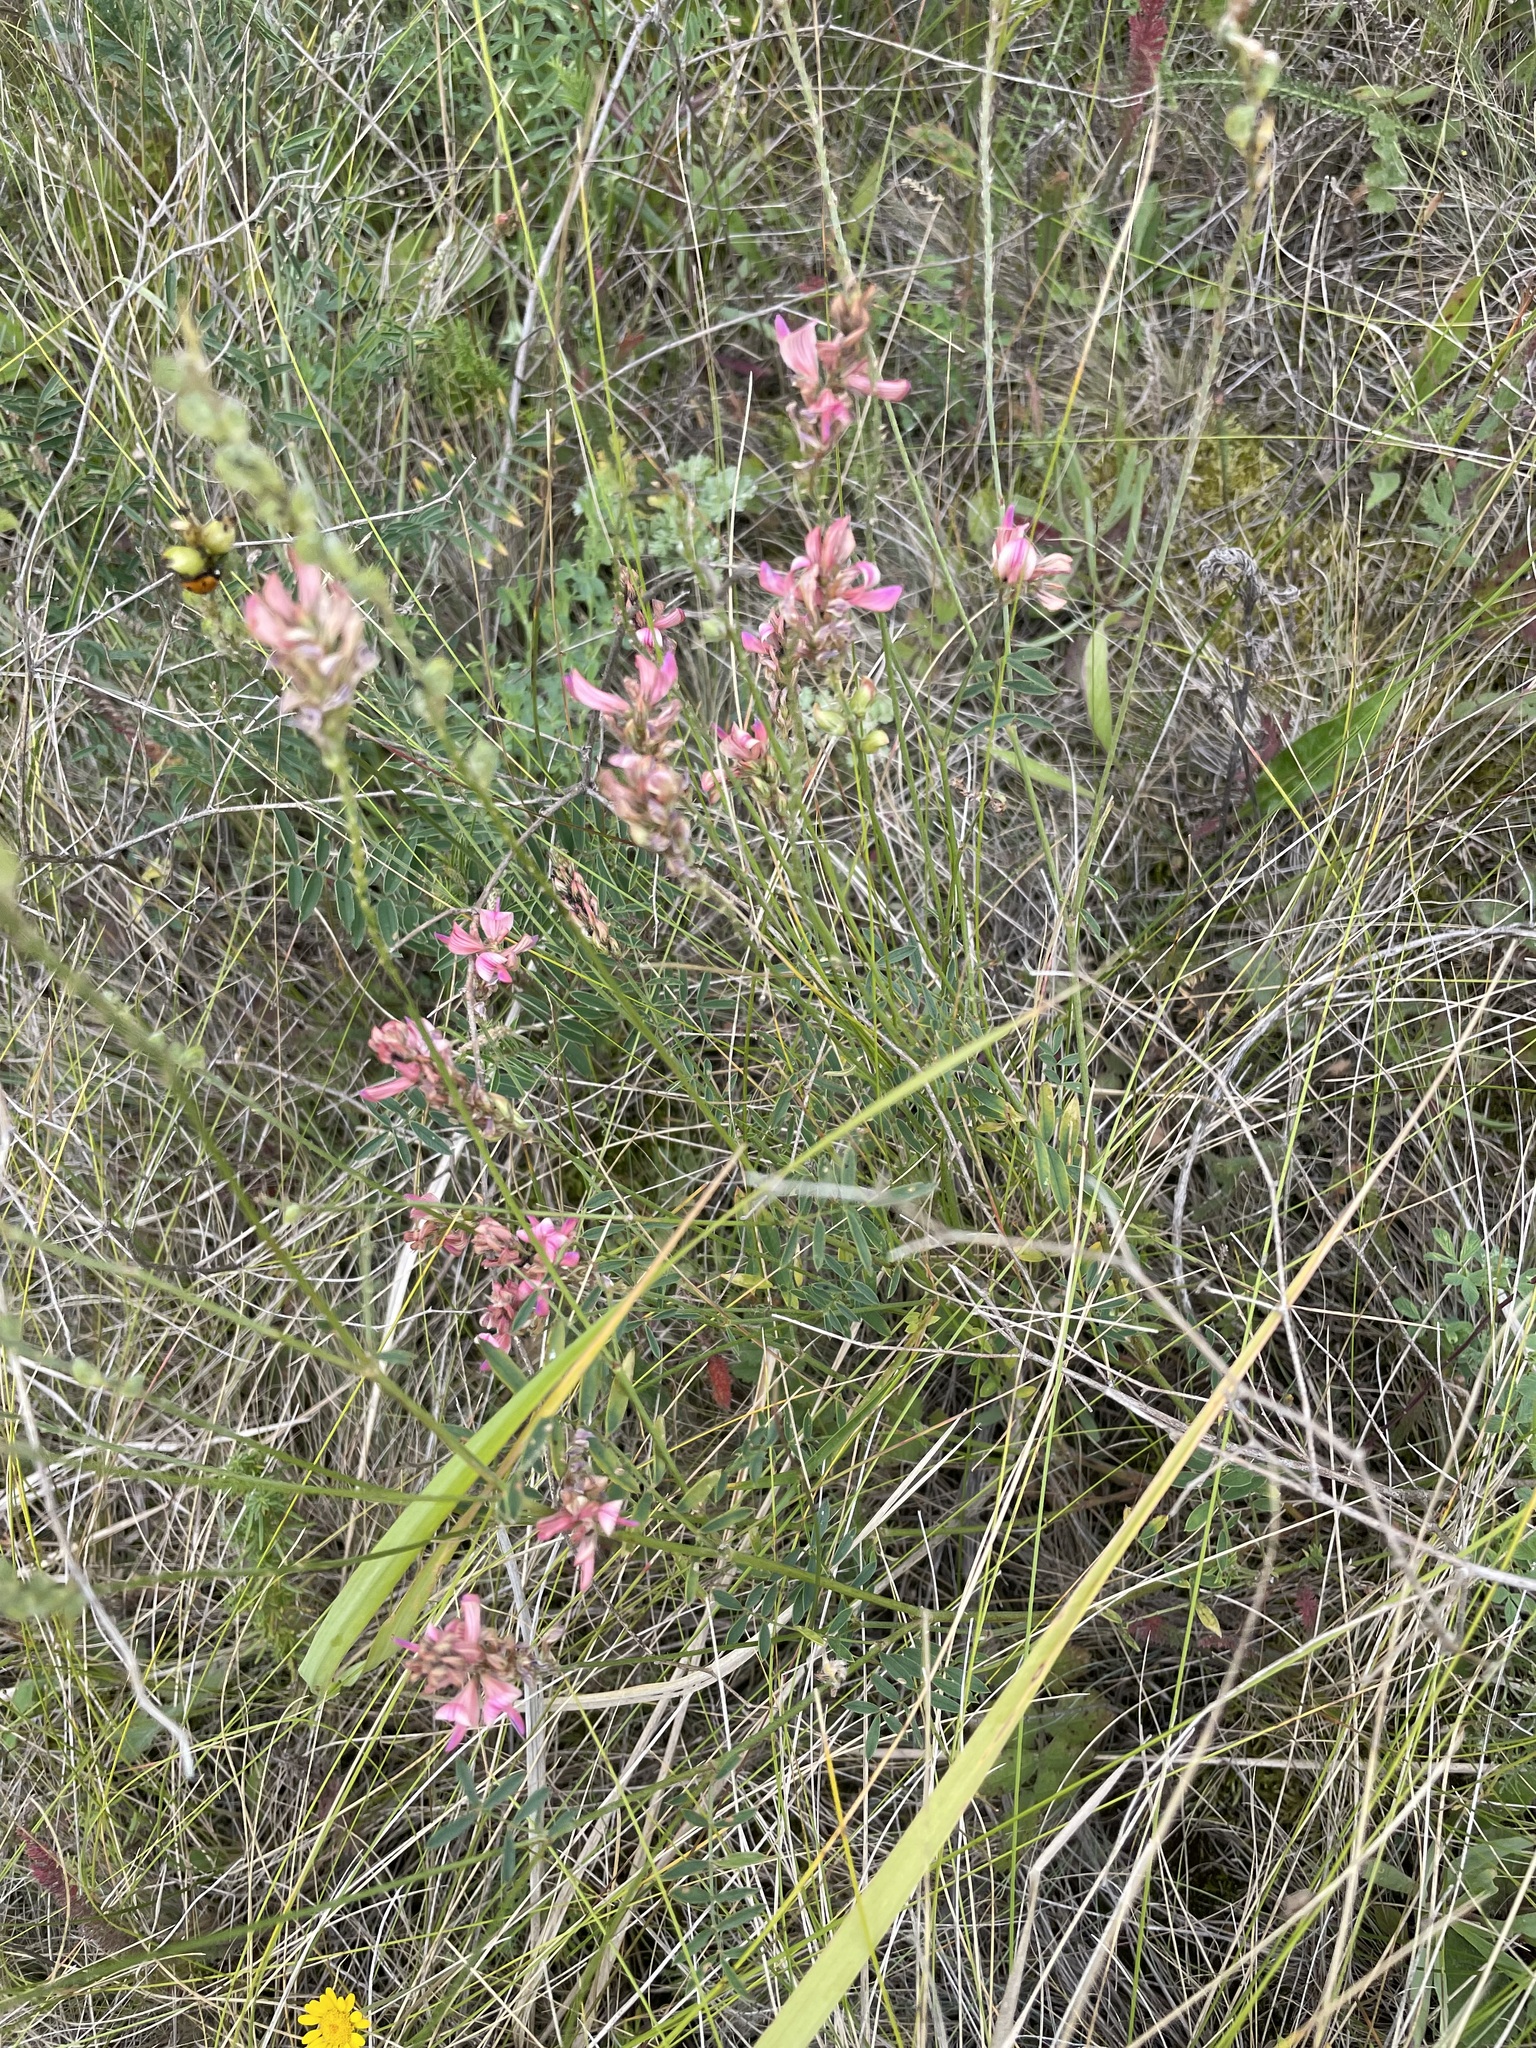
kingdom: Plantae
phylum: Tracheophyta
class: Magnoliopsida
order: Fabales
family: Fabaceae
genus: Onobrychis
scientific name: Onobrychis arenaria
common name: Sand esparcet
